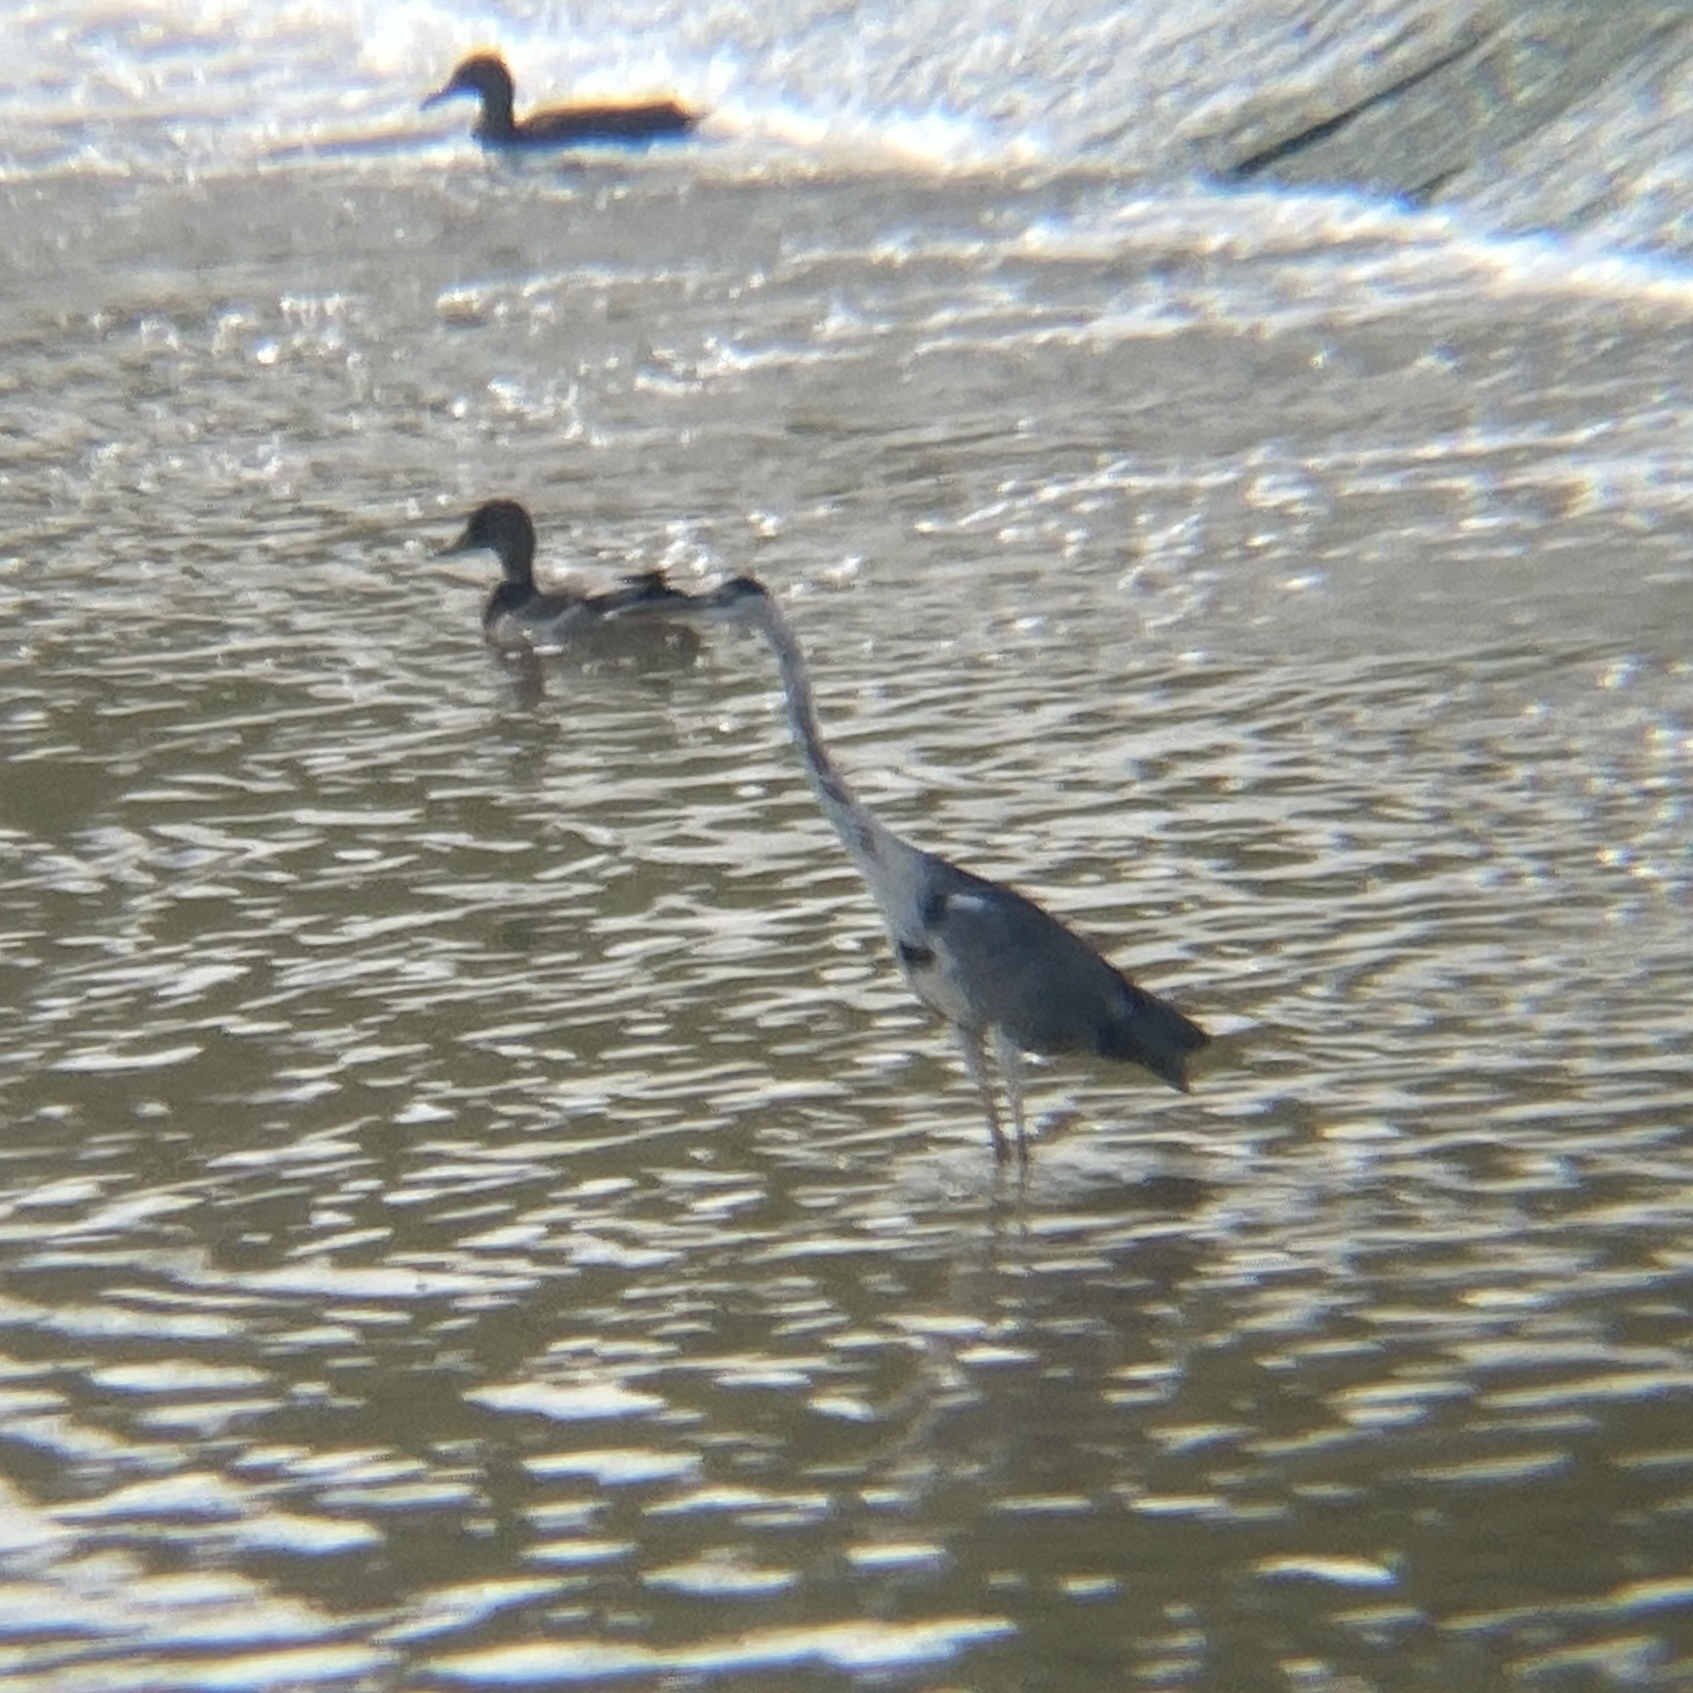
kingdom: Animalia
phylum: Chordata
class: Aves
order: Pelecaniformes
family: Ardeidae
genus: Ardea
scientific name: Ardea cinerea
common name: Grey heron
